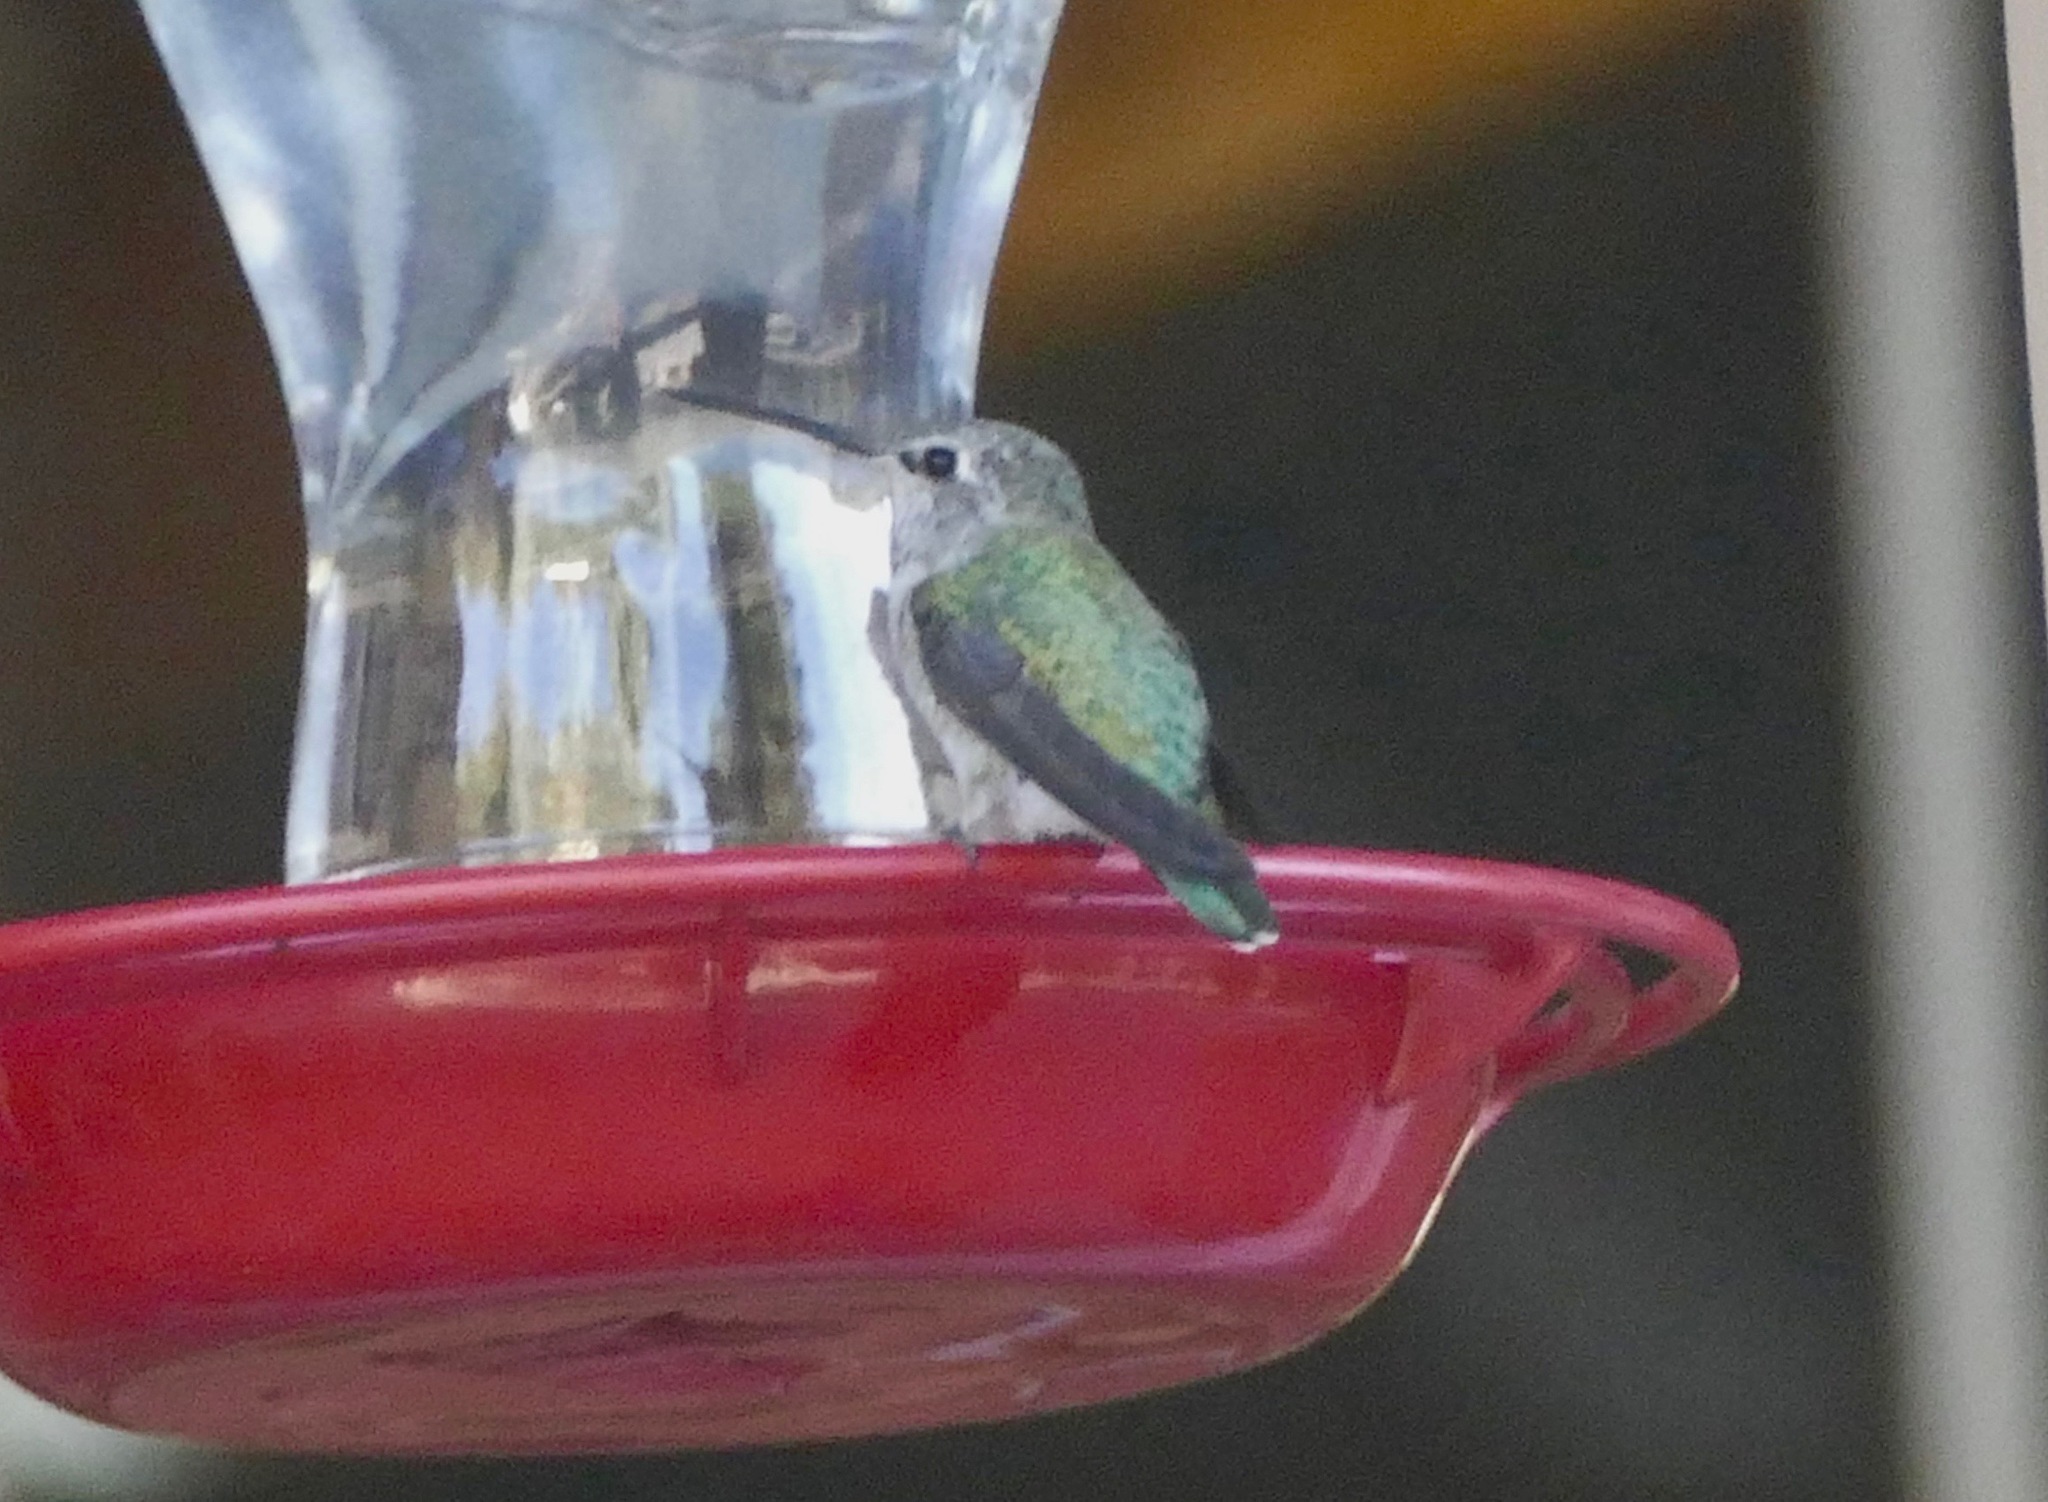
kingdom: Animalia
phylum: Chordata
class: Aves
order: Apodiformes
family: Trochilidae
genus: Calypte
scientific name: Calypte anna
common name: Anna's hummingbird
